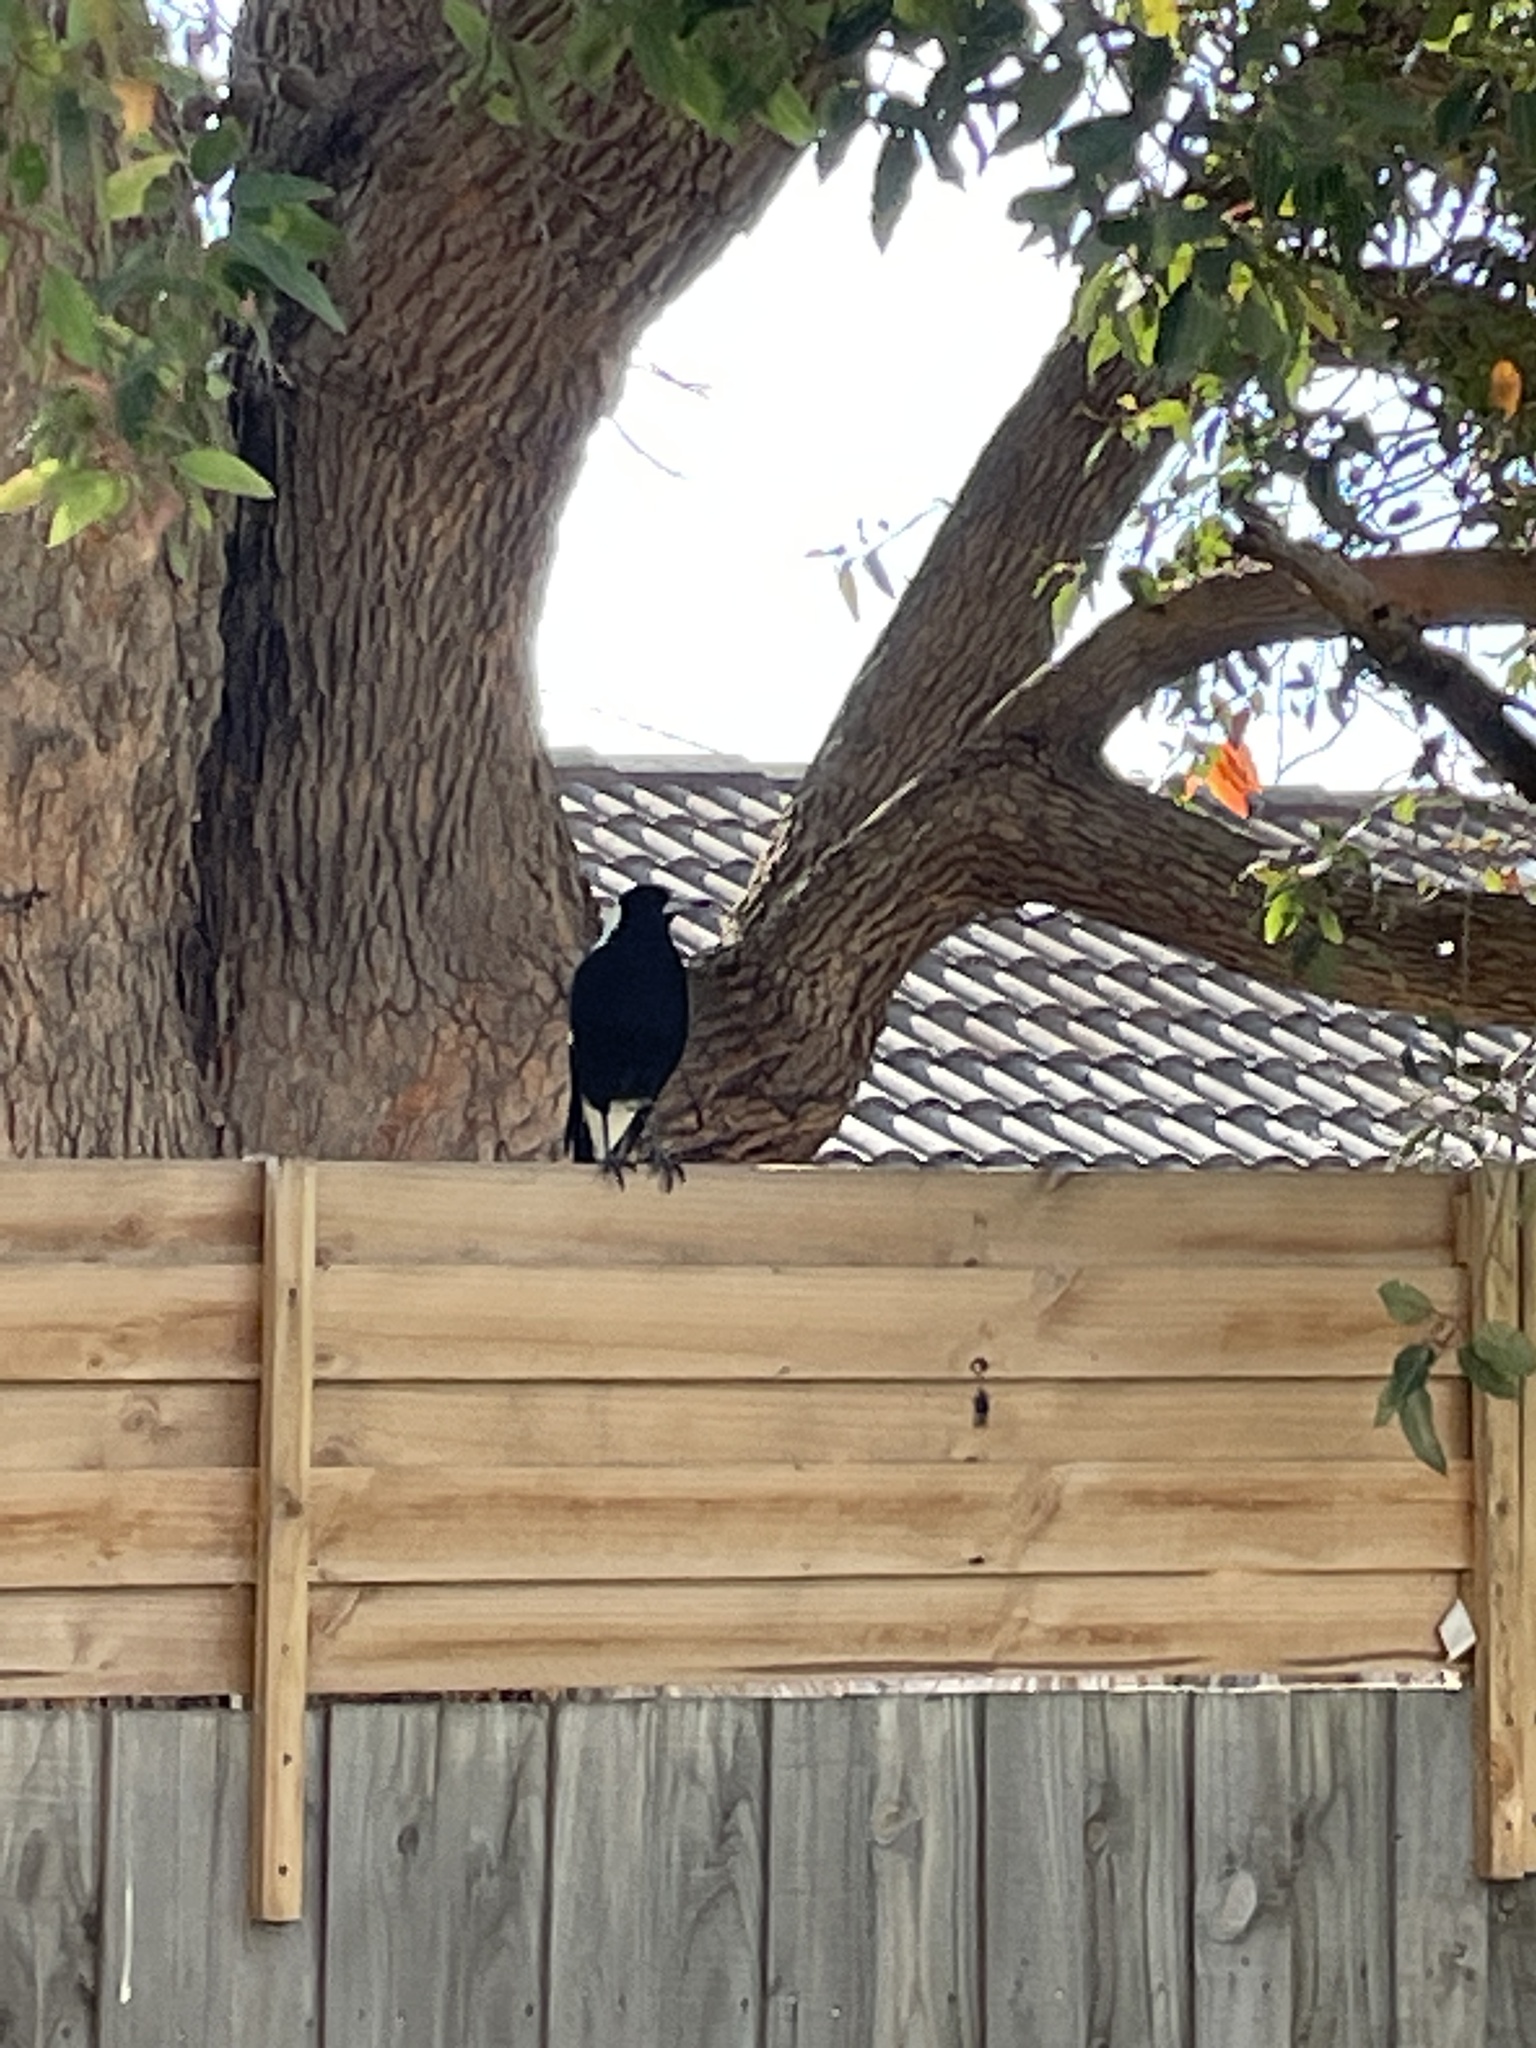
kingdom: Animalia
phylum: Chordata
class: Aves
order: Passeriformes
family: Cracticidae
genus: Gymnorhina
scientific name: Gymnorhina tibicen
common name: Australian magpie
